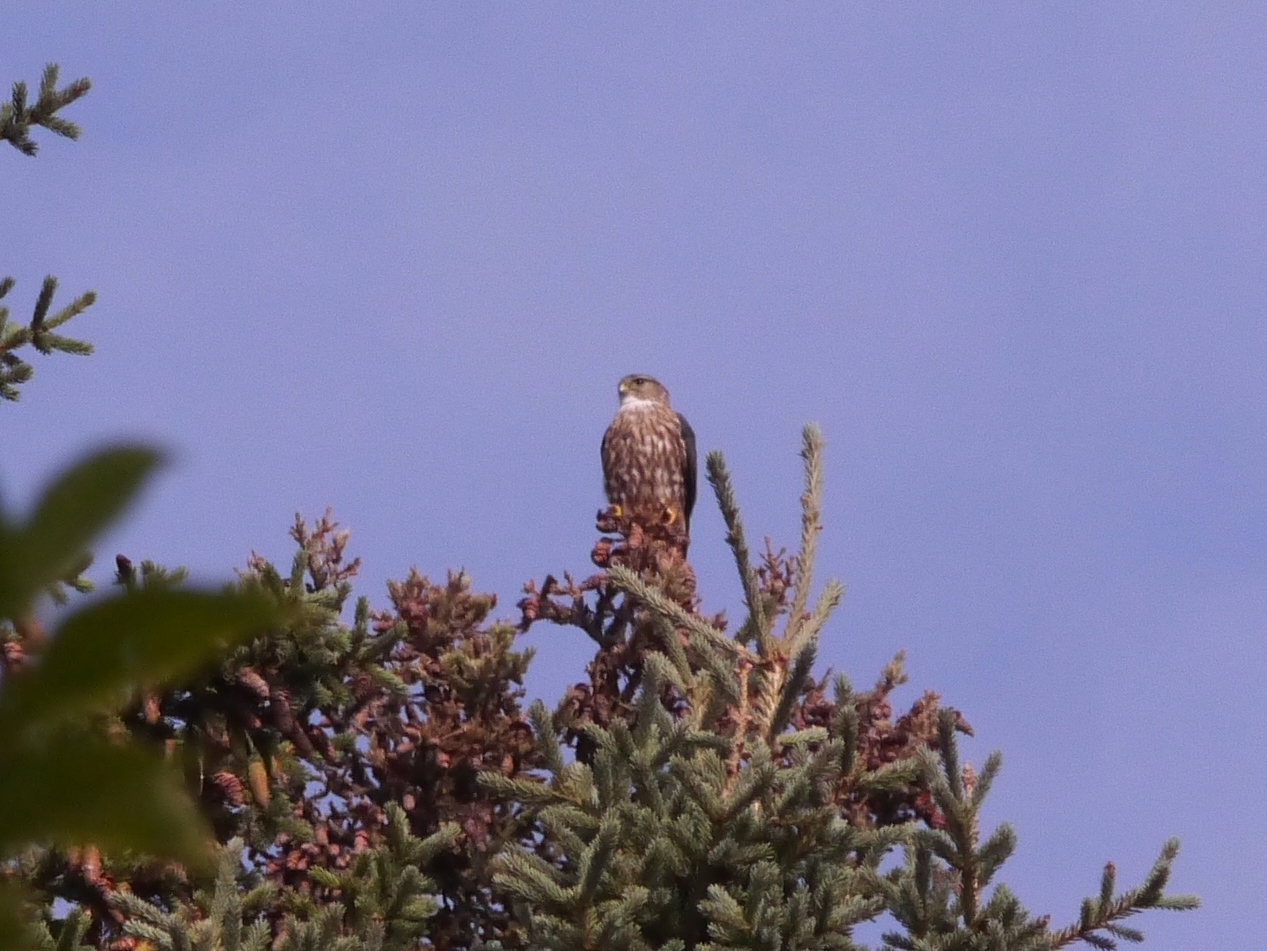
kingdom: Animalia
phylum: Chordata
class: Aves
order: Falconiformes
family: Falconidae
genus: Falco
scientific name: Falco columbarius
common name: Merlin
